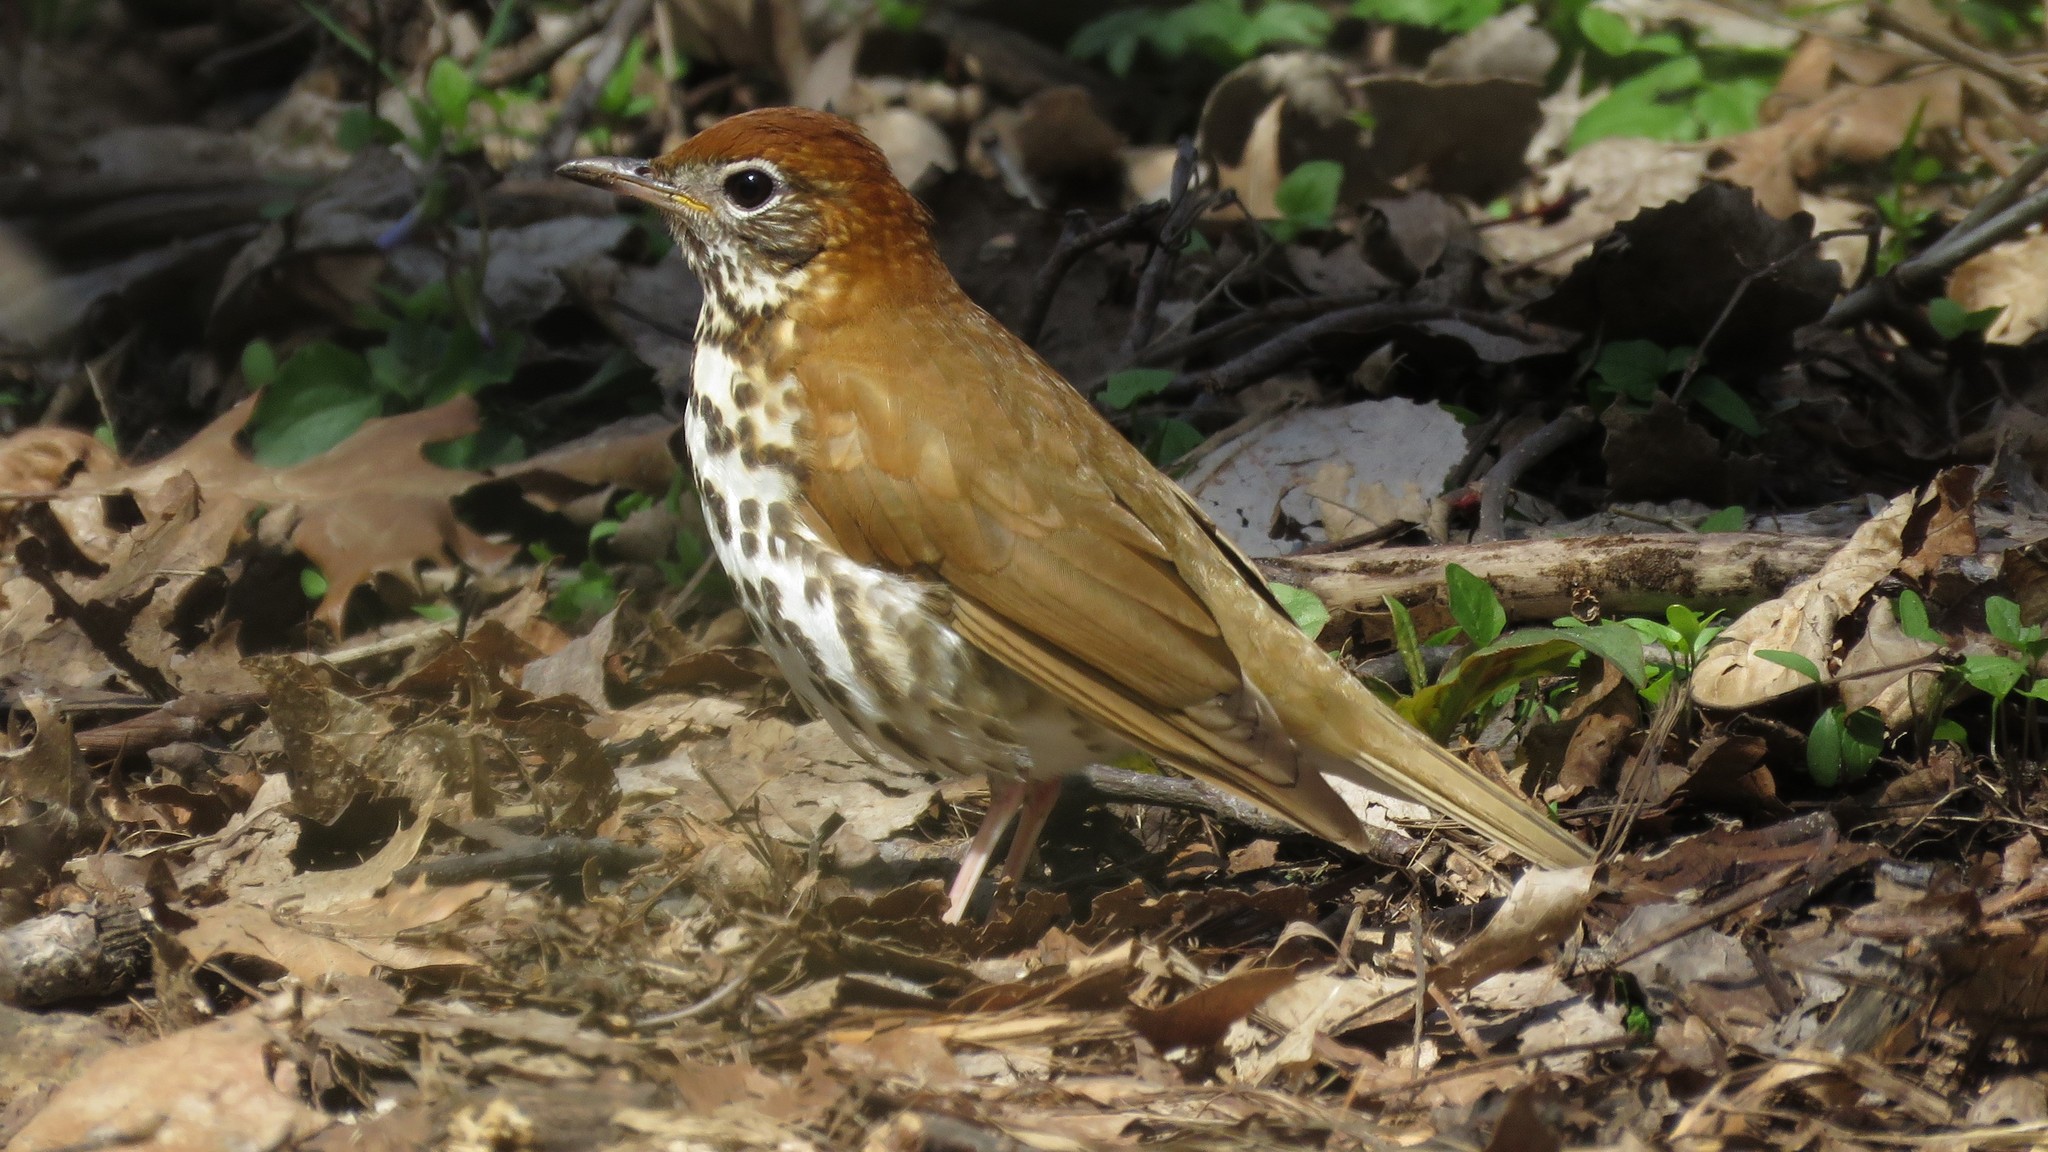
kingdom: Animalia
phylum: Chordata
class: Aves
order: Passeriformes
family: Turdidae
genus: Hylocichla
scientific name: Hylocichla mustelina
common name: Wood thrush
